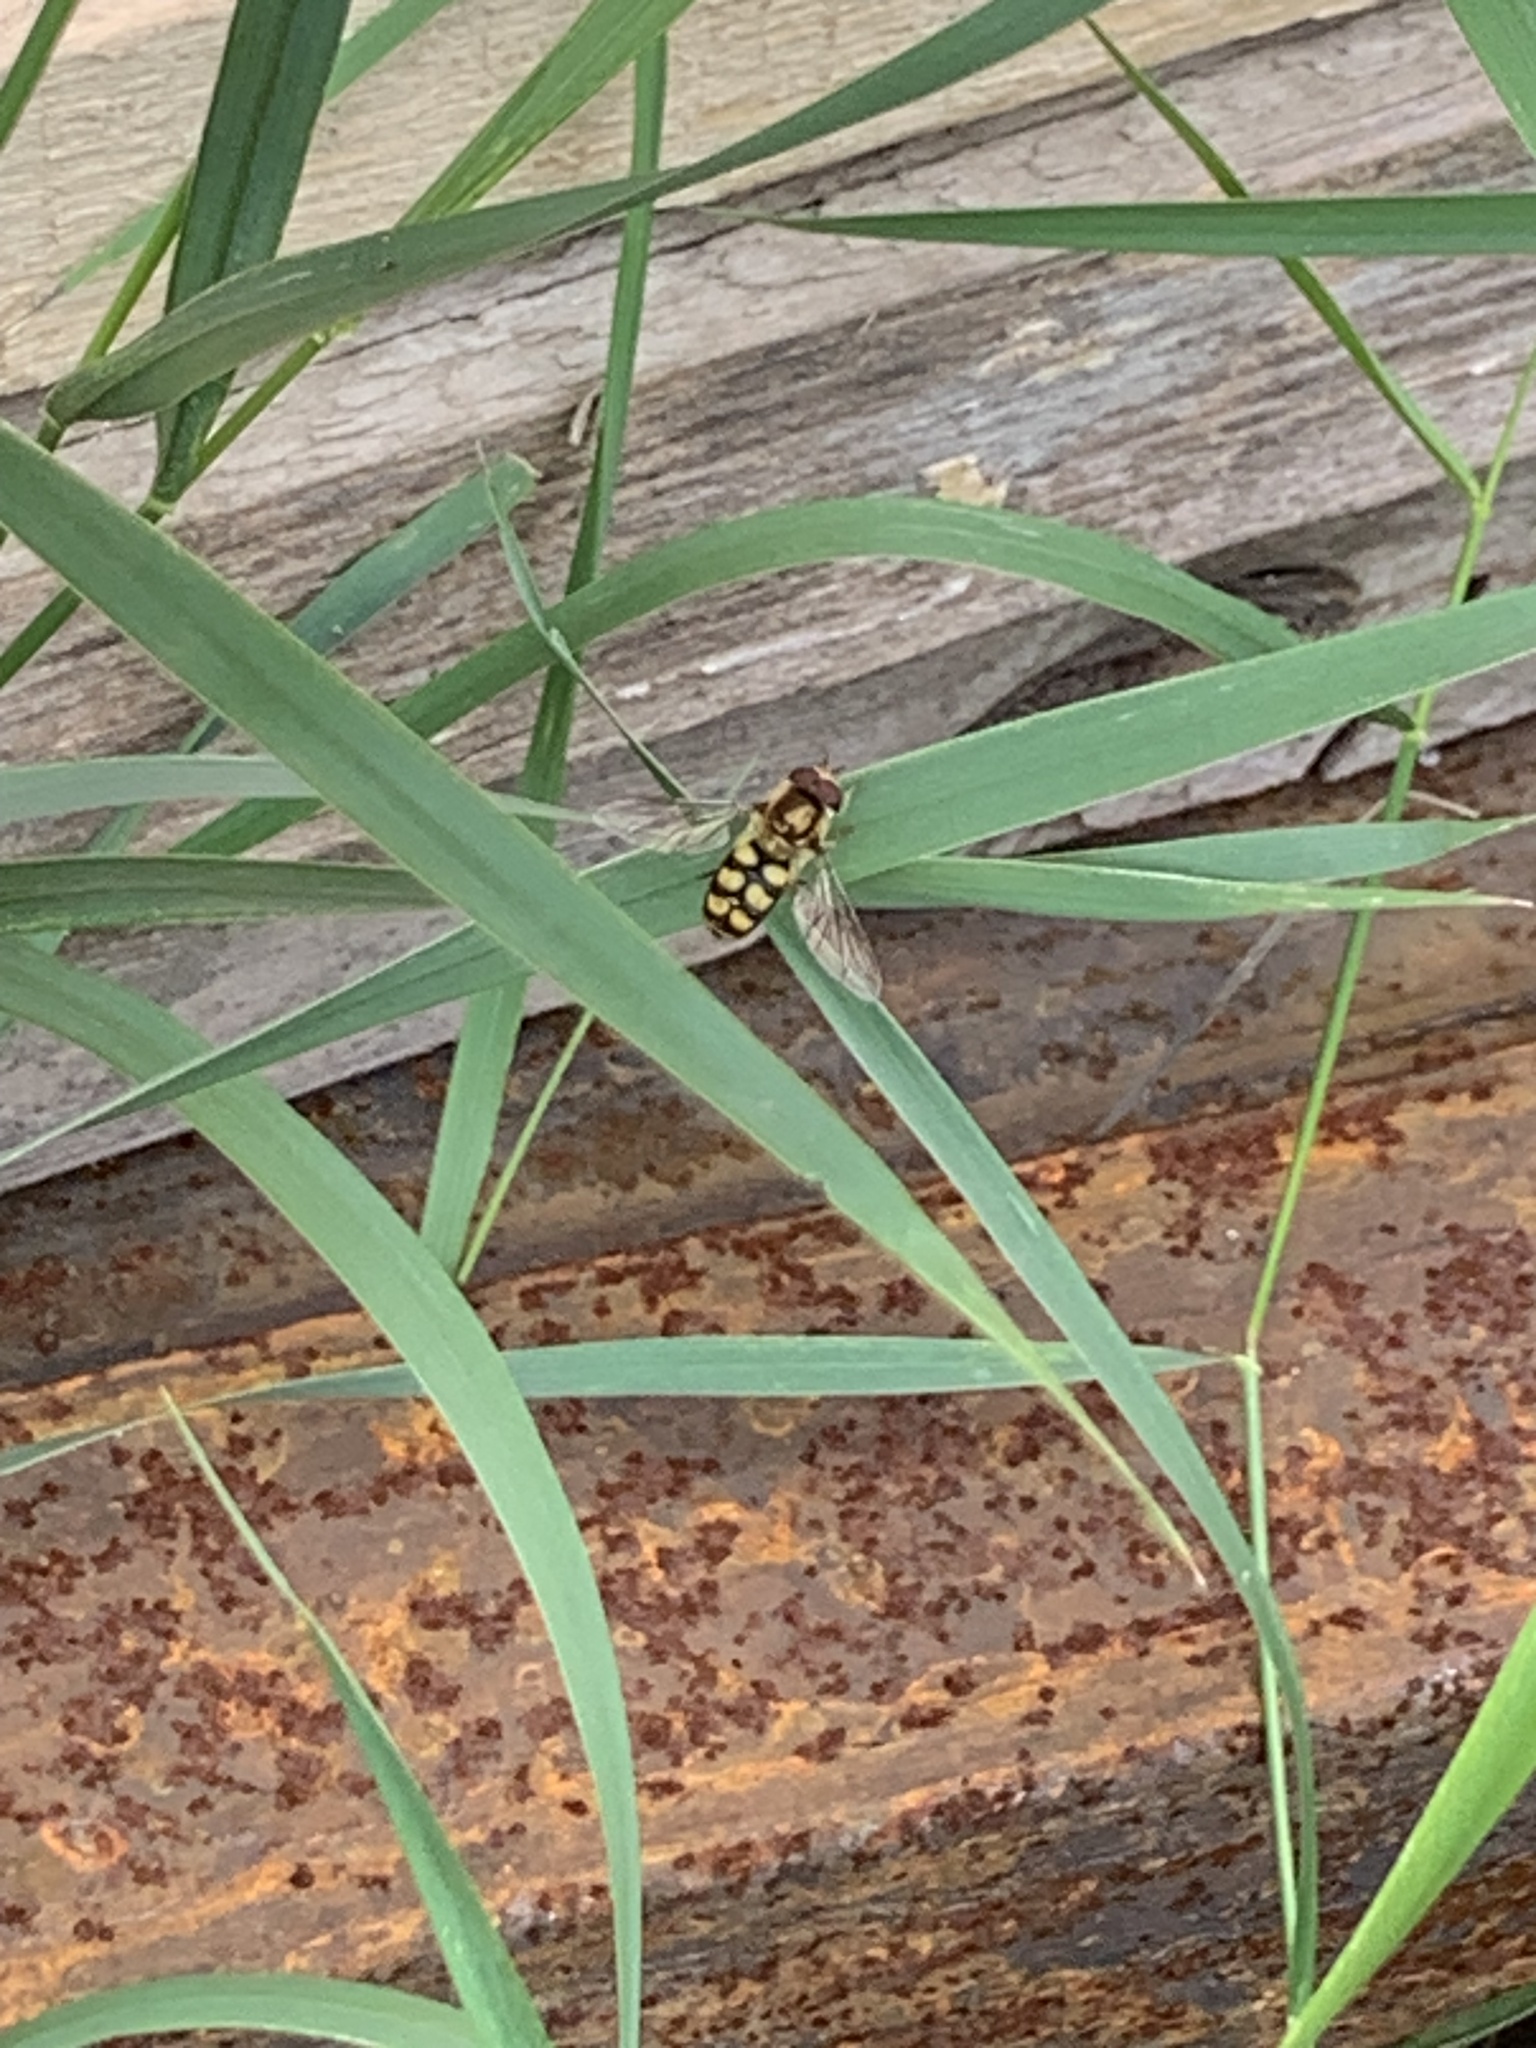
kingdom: Animalia
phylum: Arthropoda
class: Insecta
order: Diptera
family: Syrphidae
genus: Eupeodes
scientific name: Eupeodes
